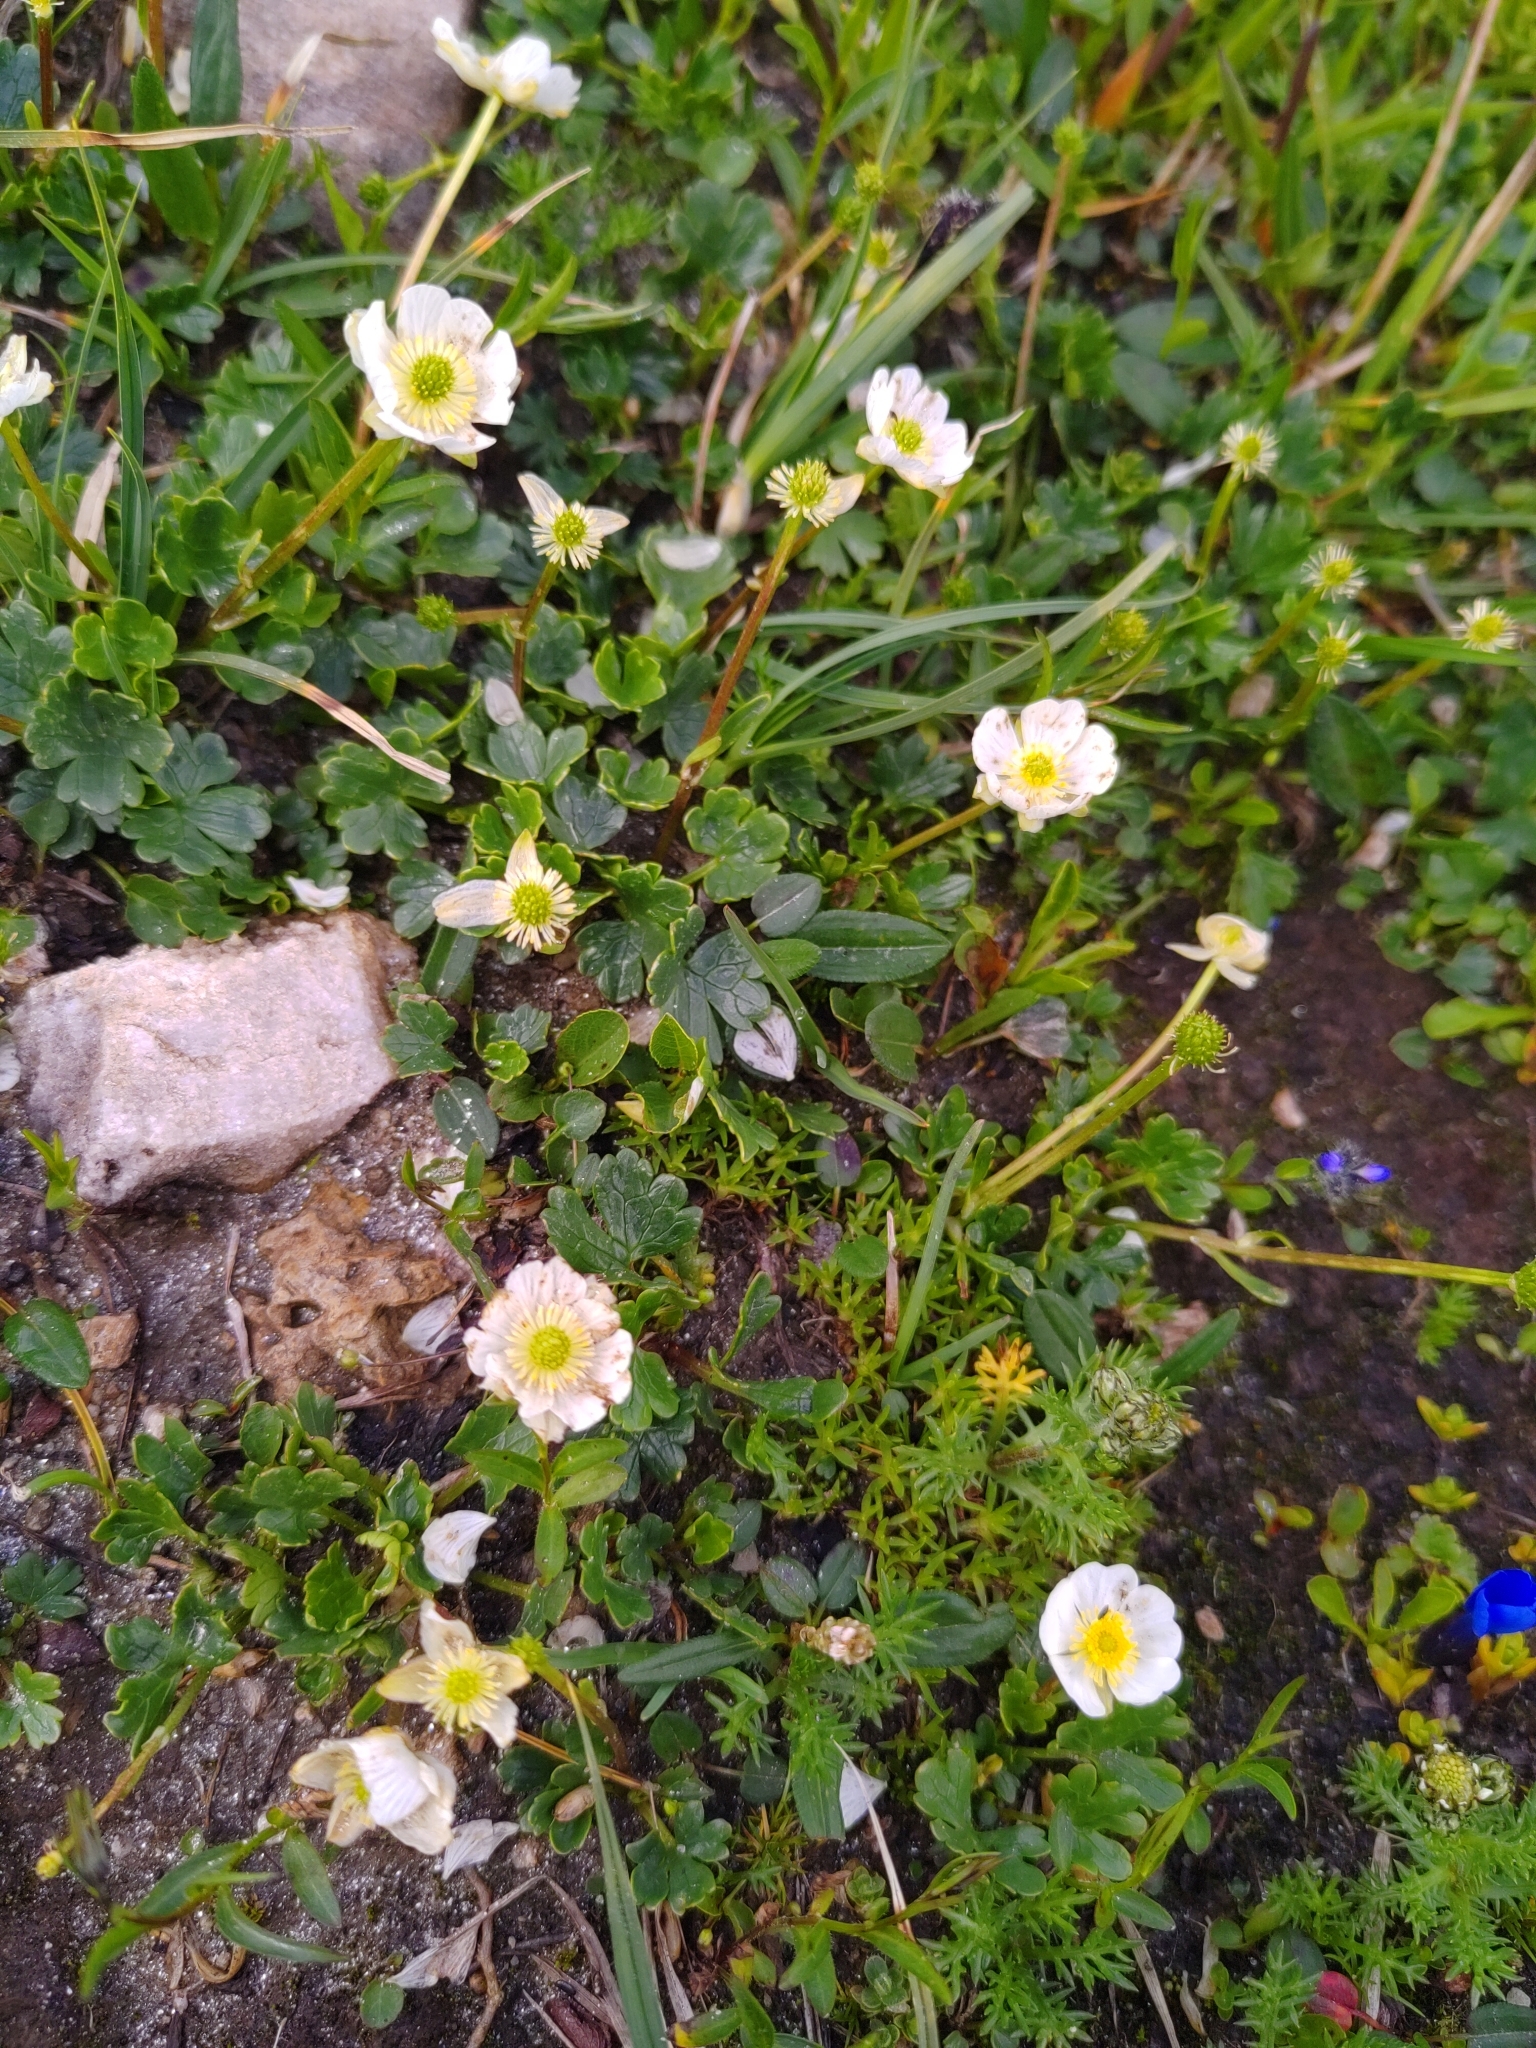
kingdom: Plantae
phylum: Tracheophyta
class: Magnoliopsida
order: Ranunculales
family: Ranunculaceae
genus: Ranunculus
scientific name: Ranunculus alpestris
